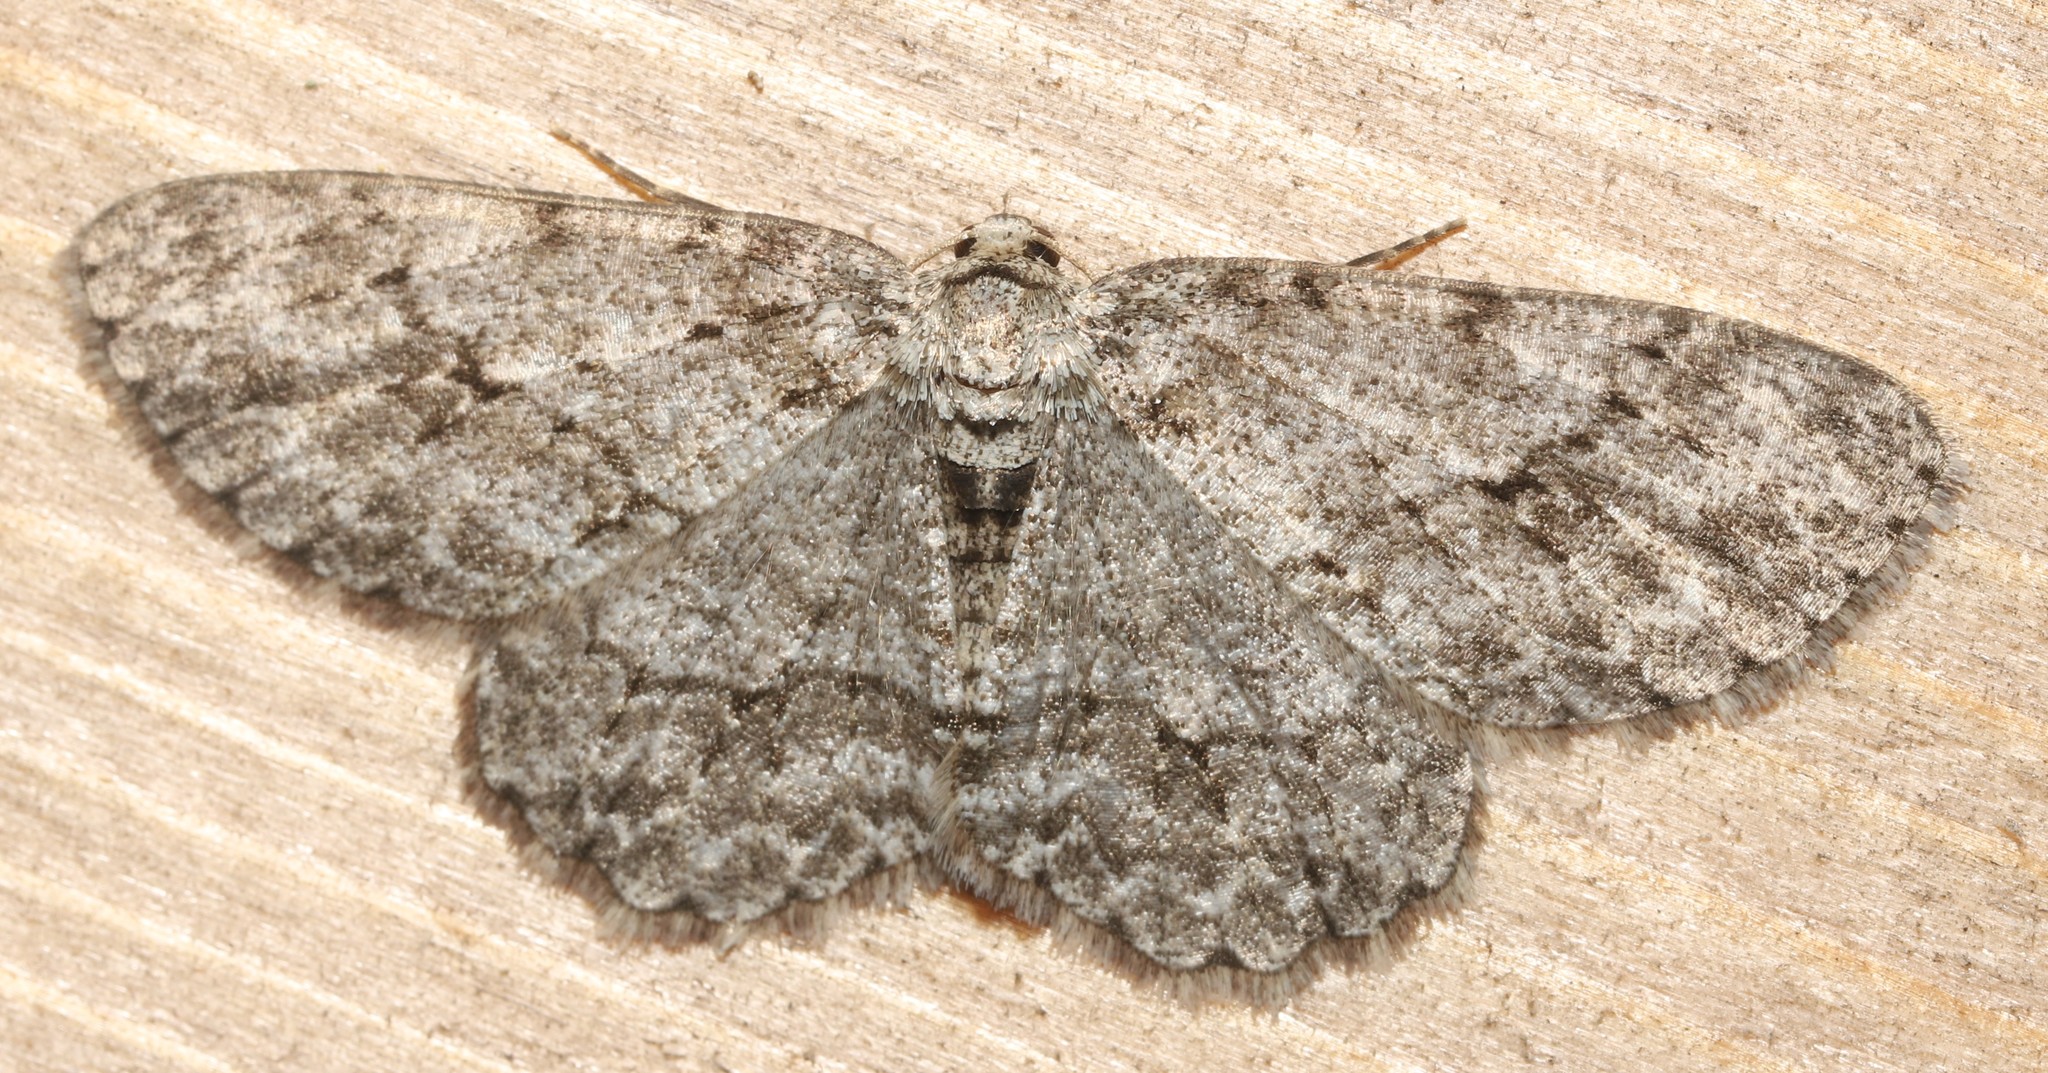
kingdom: Animalia
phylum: Arthropoda
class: Insecta
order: Lepidoptera
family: Geometridae
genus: Ectropis
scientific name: Ectropis crepuscularia
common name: Engrailed
